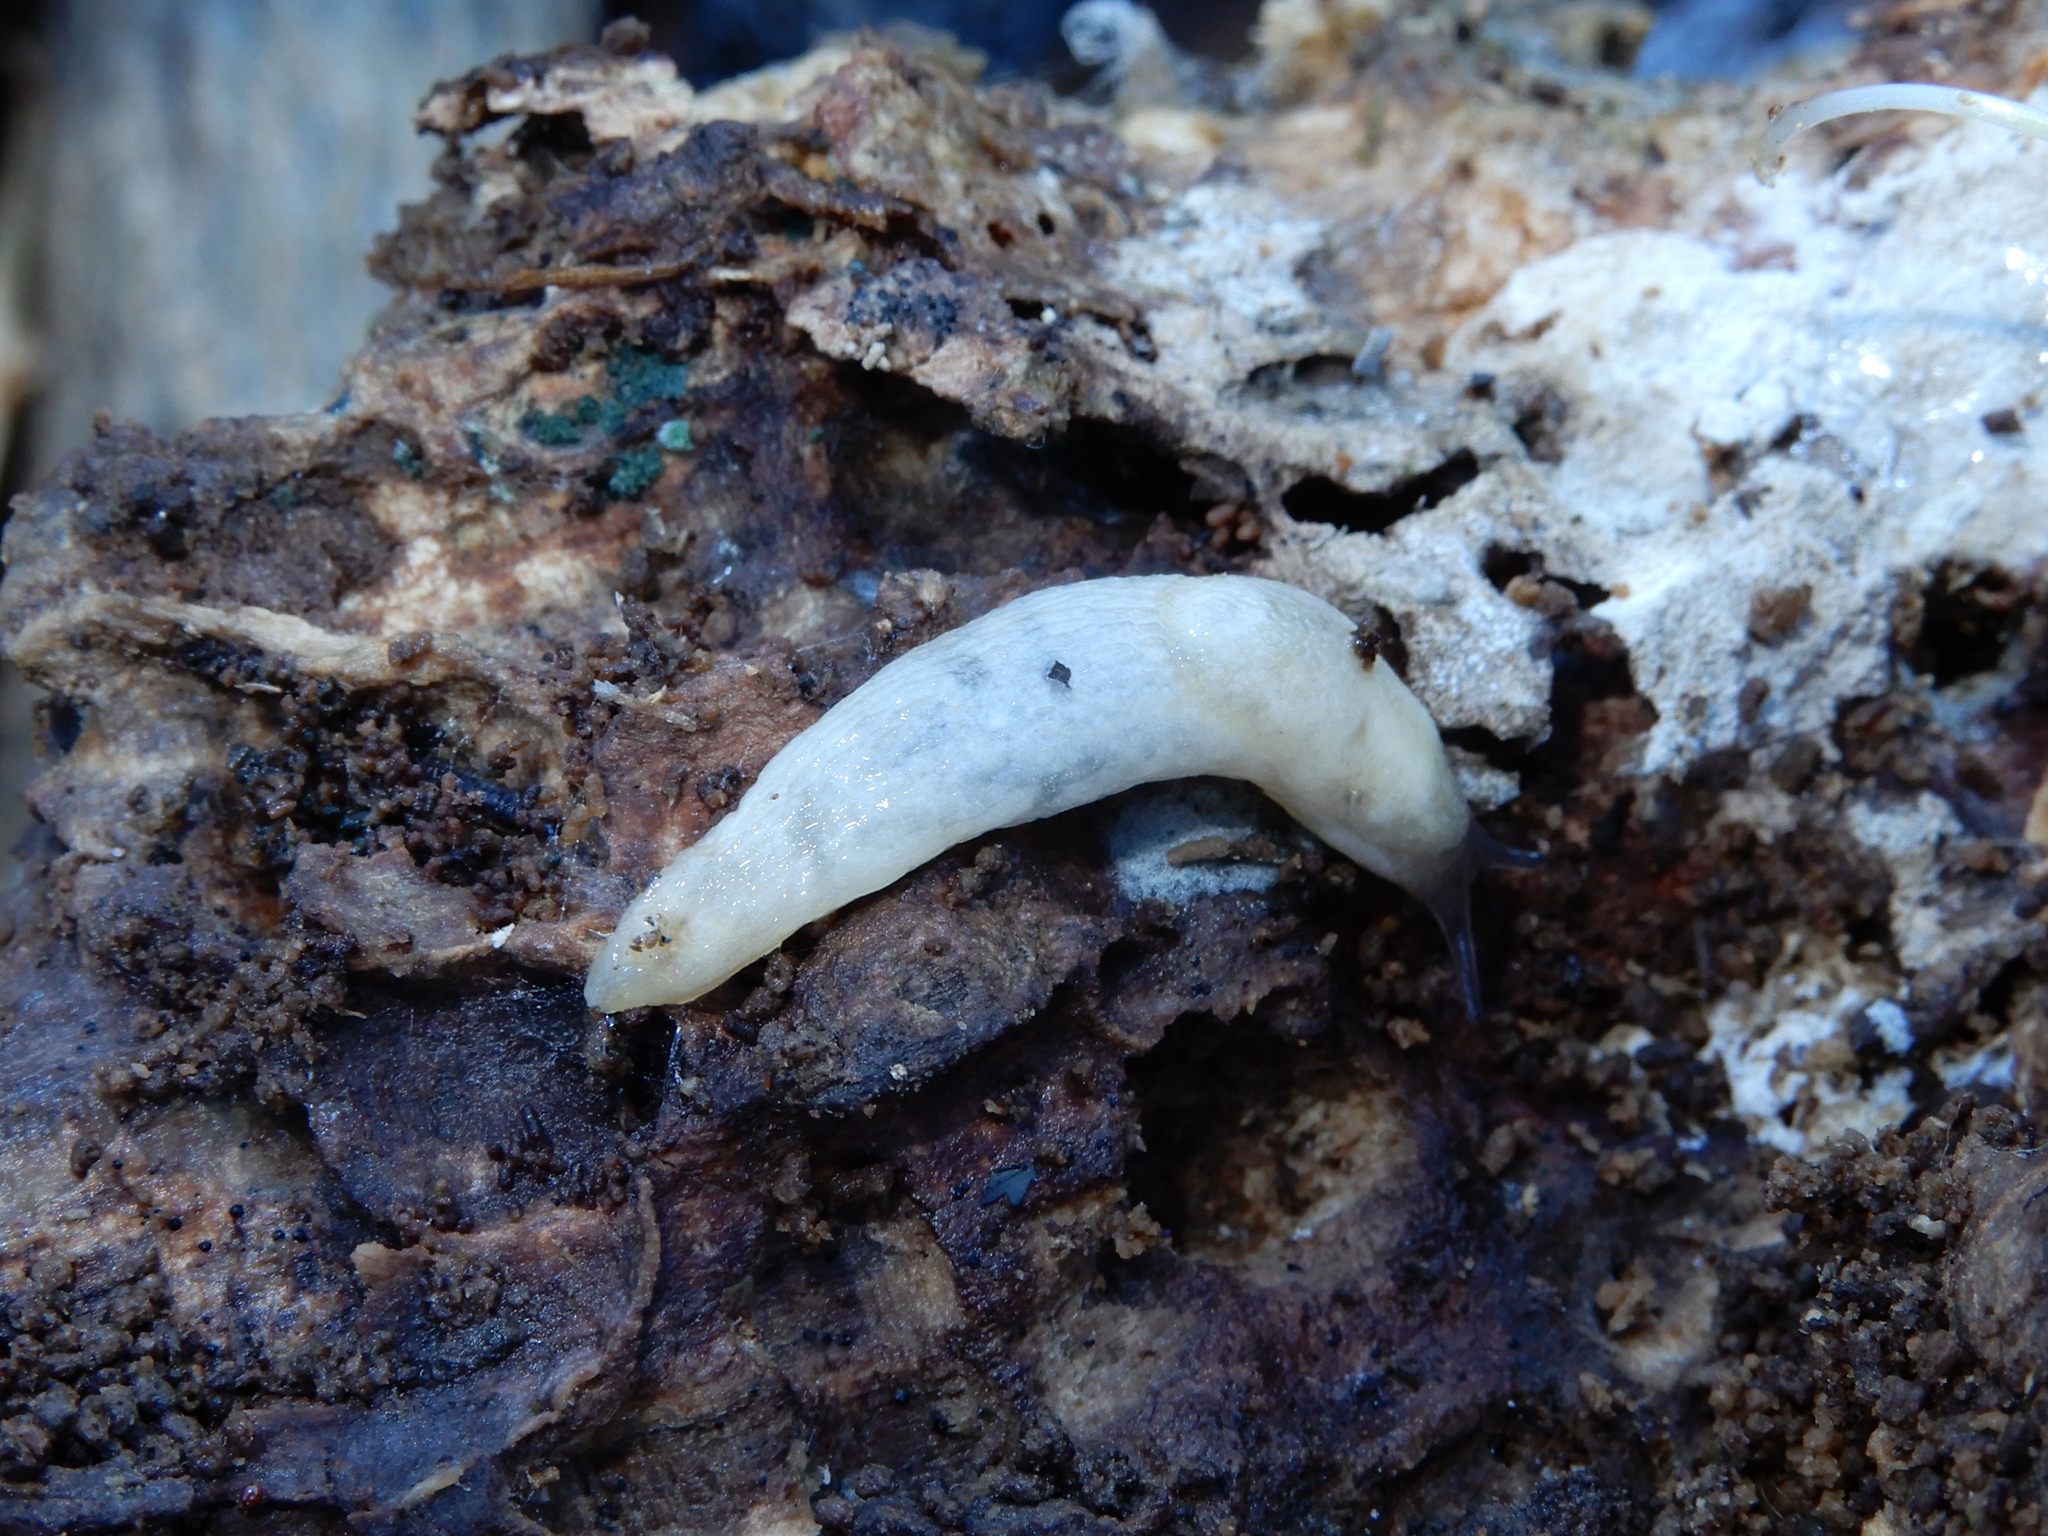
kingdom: Animalia
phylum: Mollusca
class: Gastropoda
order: Stylommatophora
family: Agriolimacidae
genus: Deroceras
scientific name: Deroceras reticulatum
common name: Gray field slug
